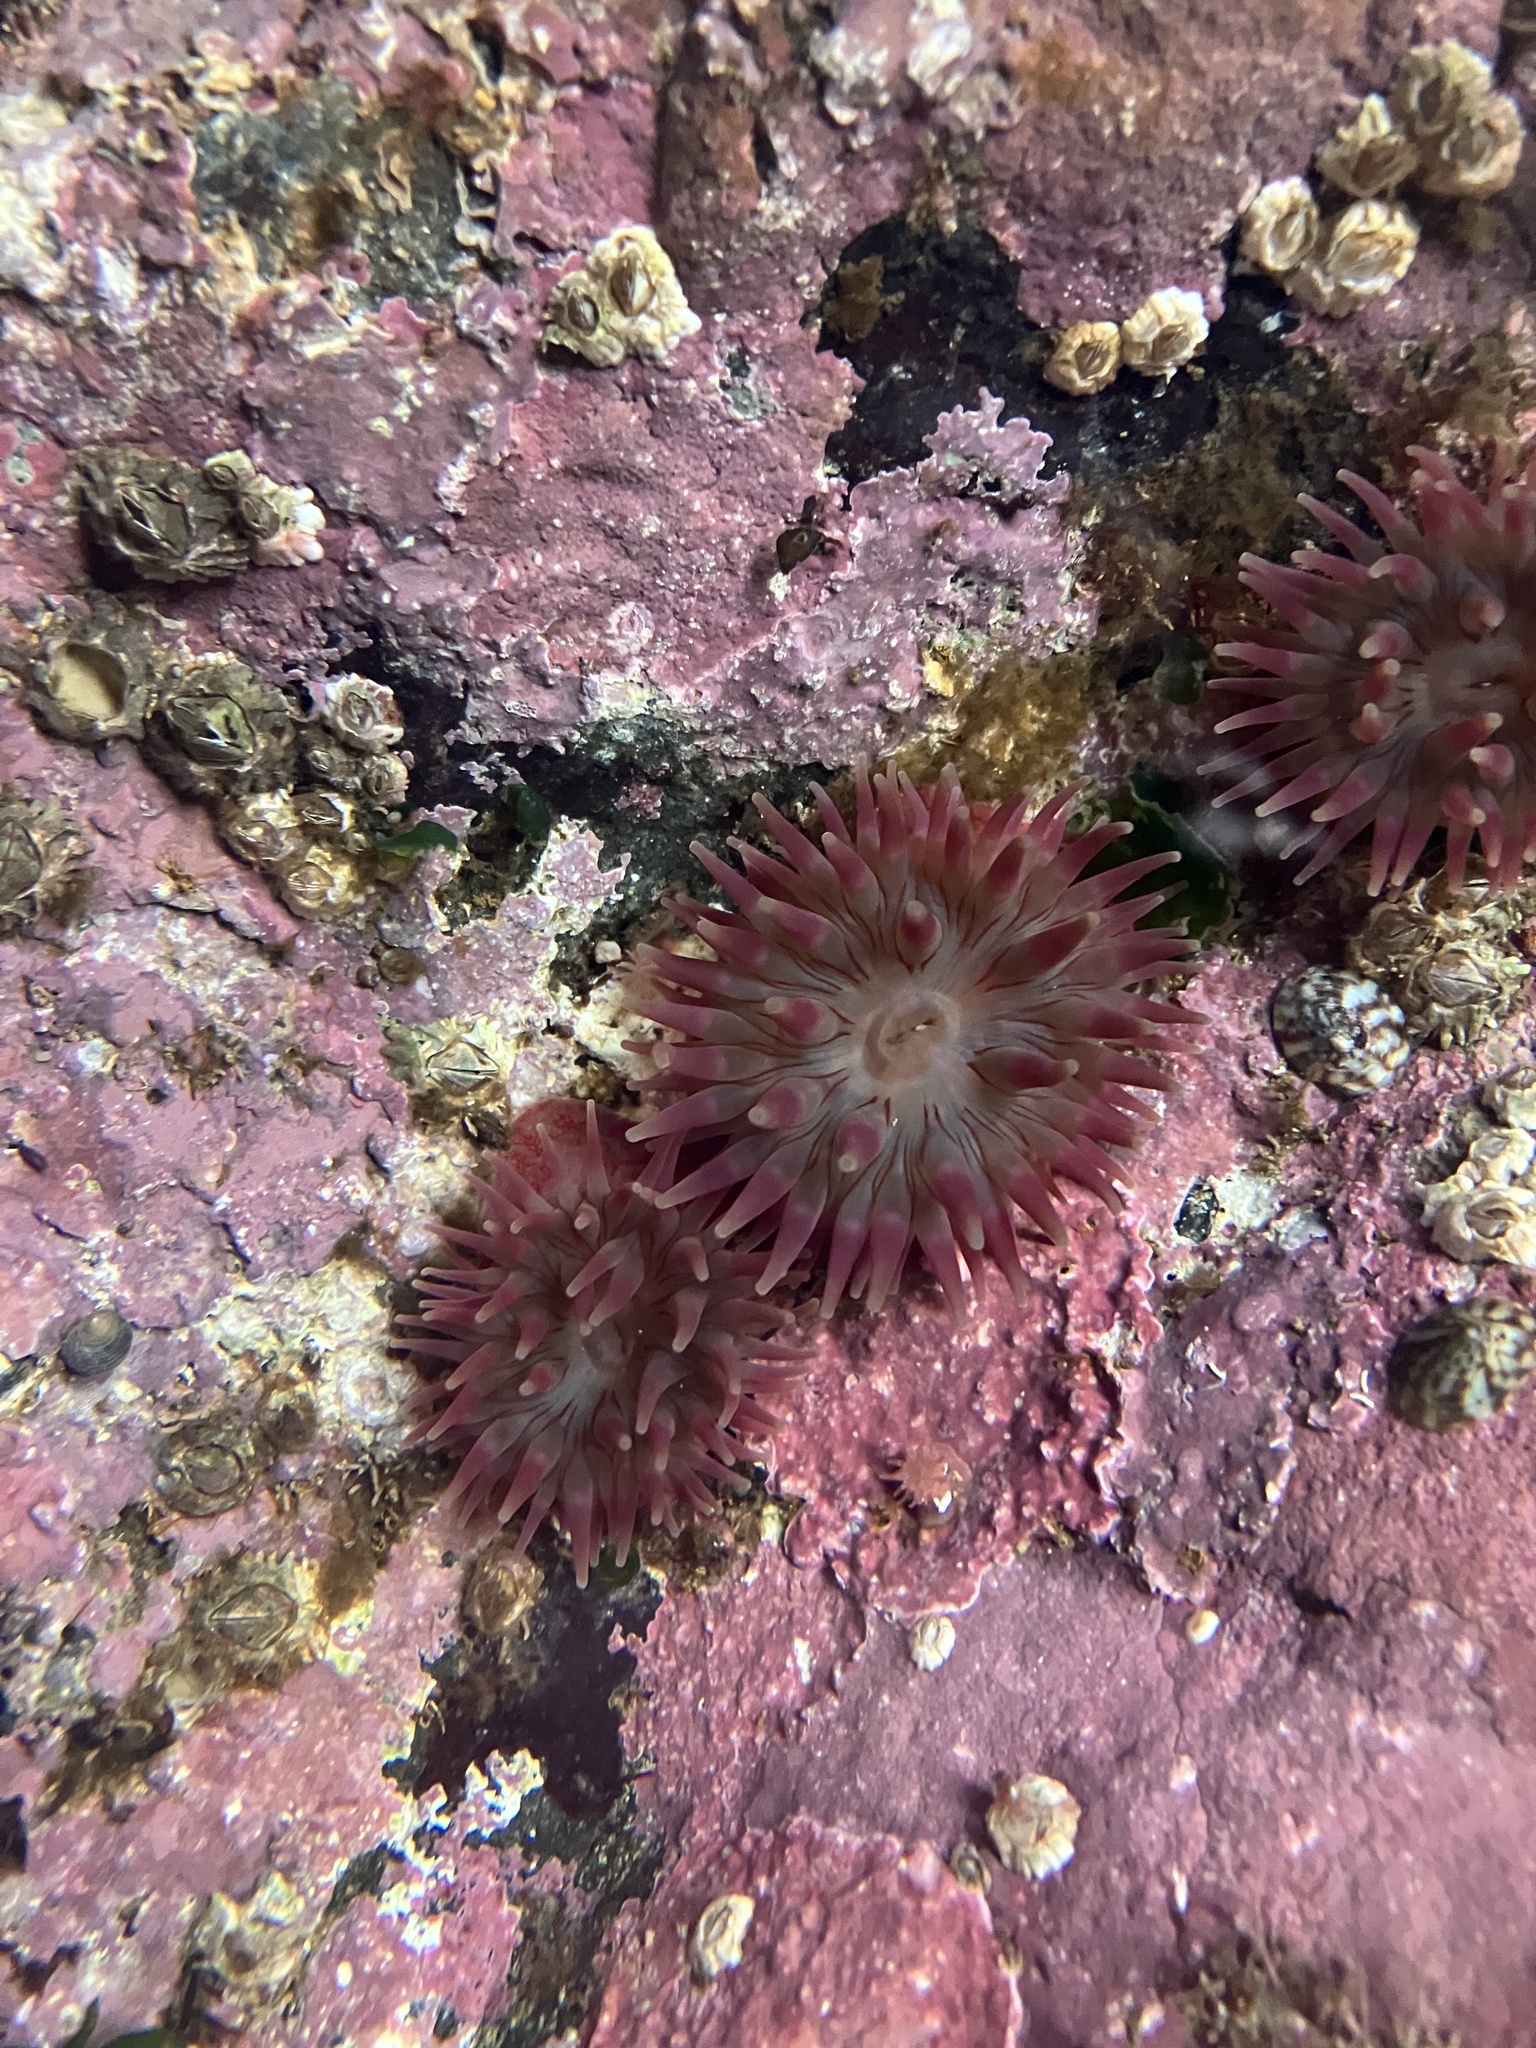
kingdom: Animalia
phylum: Cnidaria
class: Anthozoa
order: Actiniaria
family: Actiniidae
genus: Urticina
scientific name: Urticina crassicornis
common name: Mottled anemone
